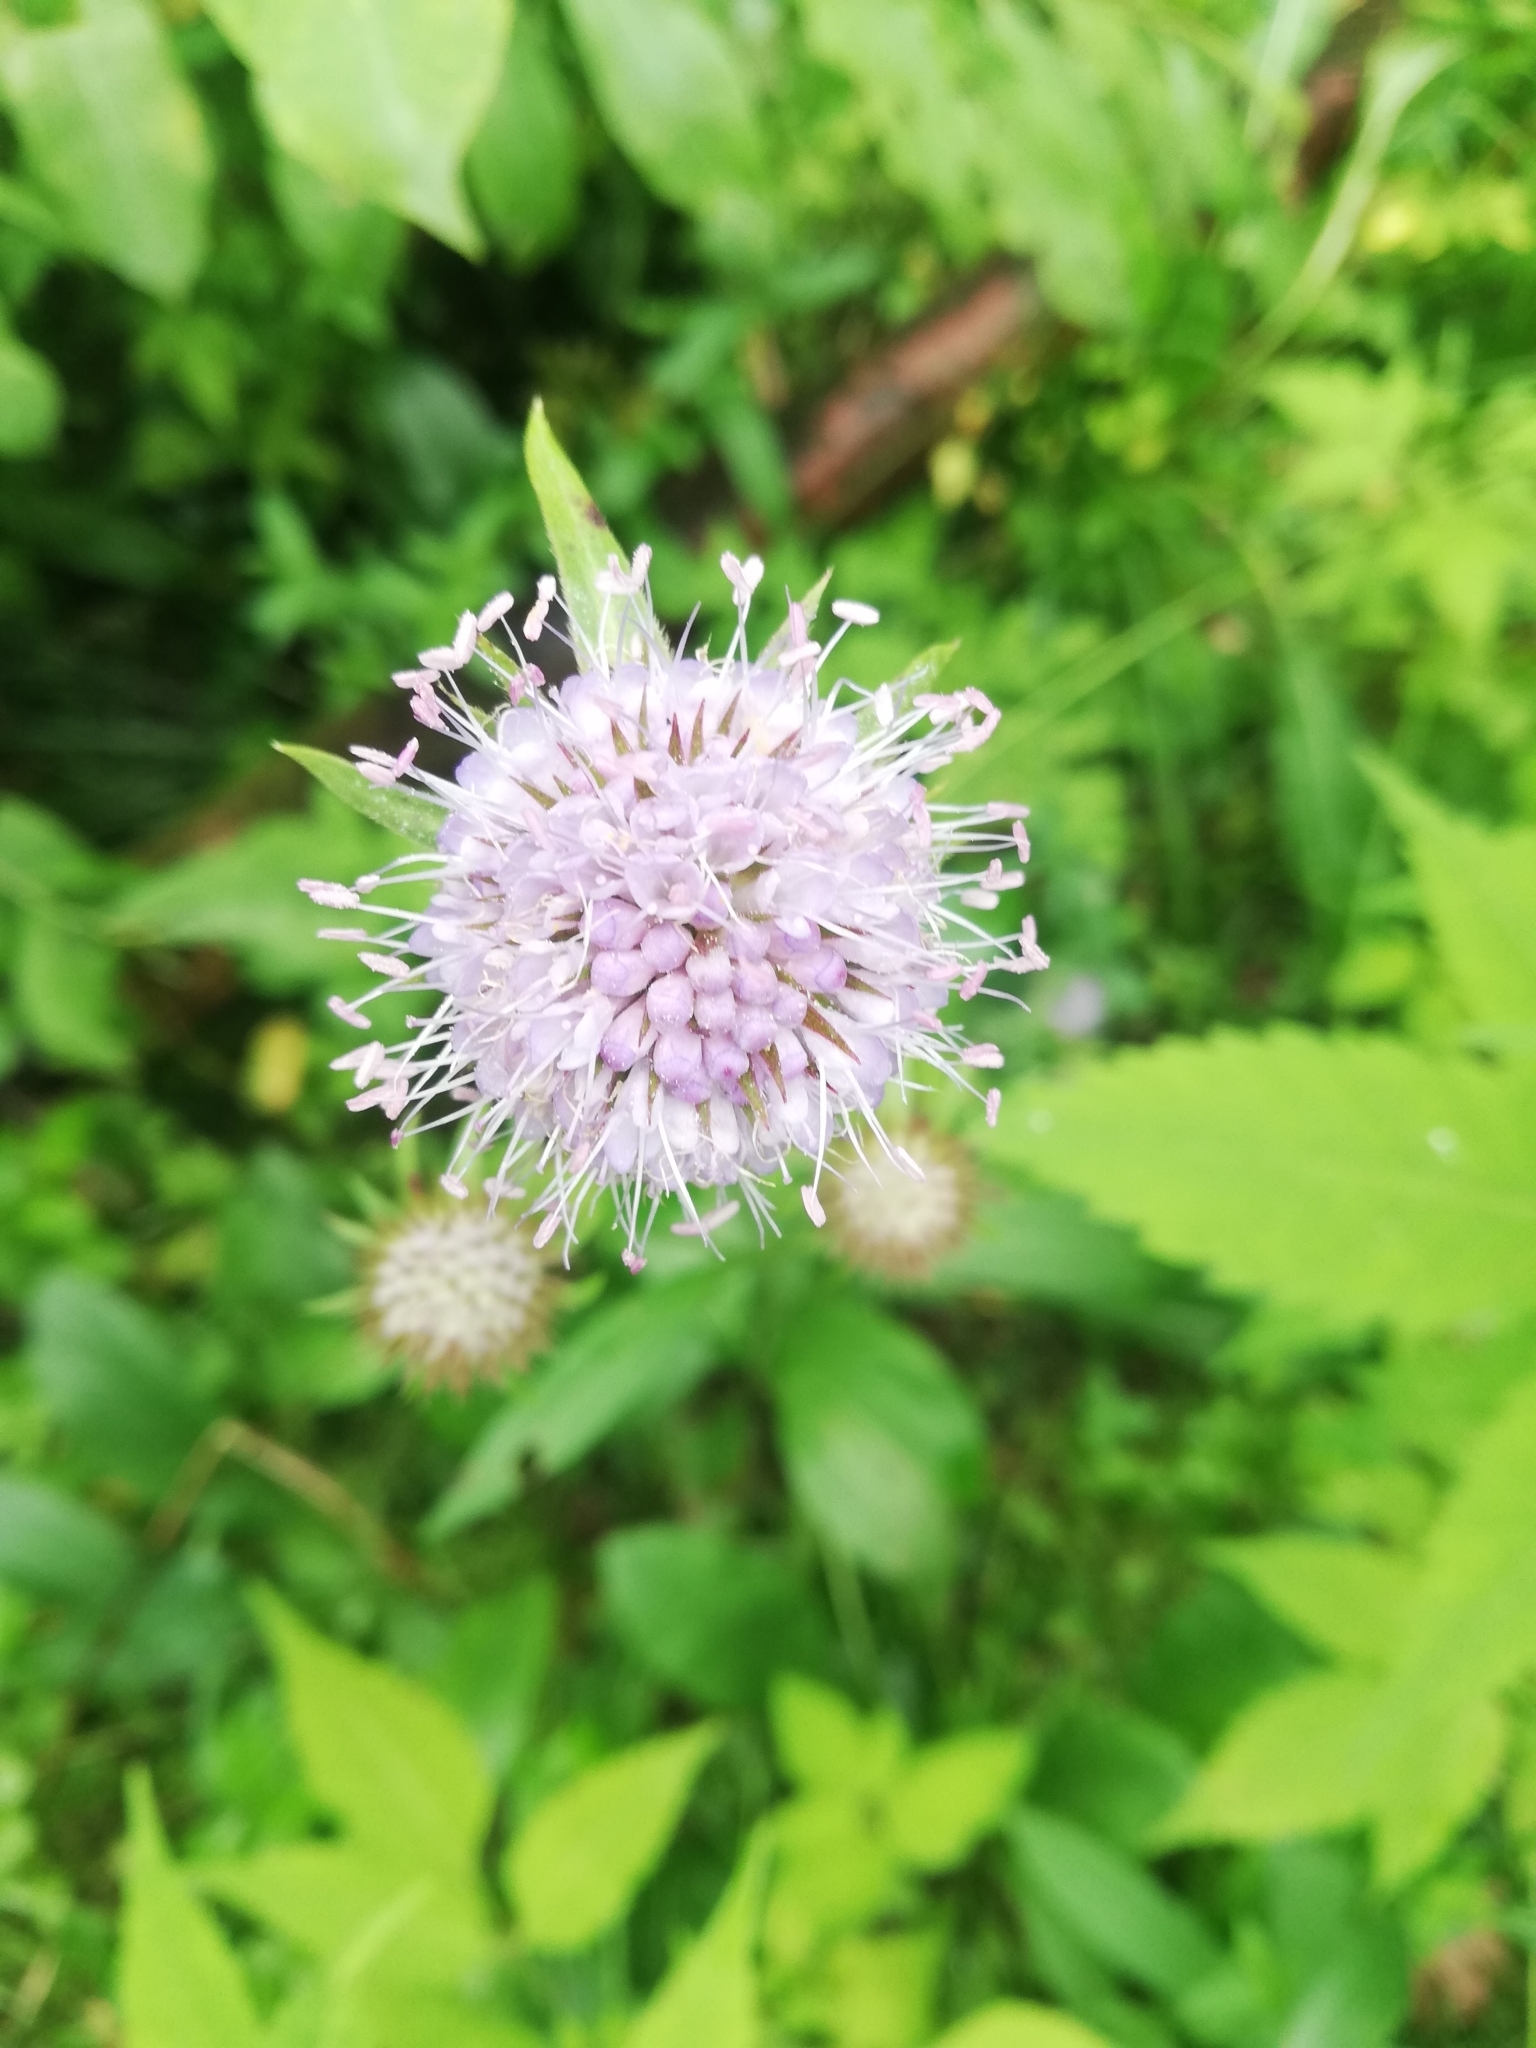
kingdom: Plantae
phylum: Tracheophyta
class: Magnoliopsida
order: Dipsacales
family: Caprifoliaceae
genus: Succisa
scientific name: Succisa pratensis
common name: Devil's-bit
